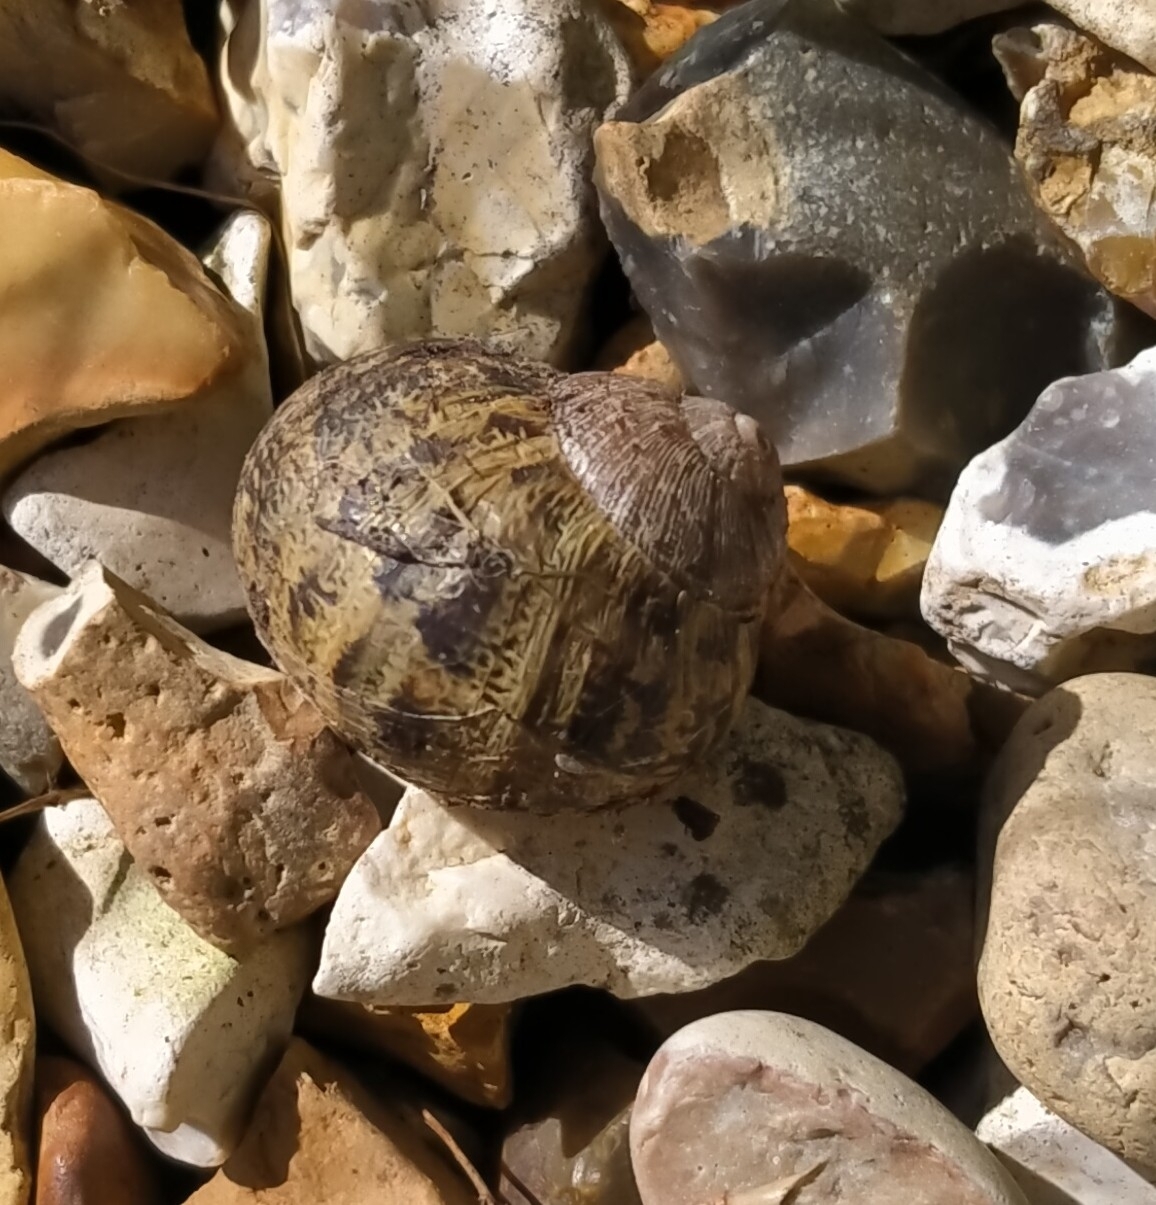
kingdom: Animalia
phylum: Mollusca
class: Gastropoda
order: Stylommatophora
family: Helicidae
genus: Cornu
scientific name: Cornu aspersum
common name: Brown garden snail
